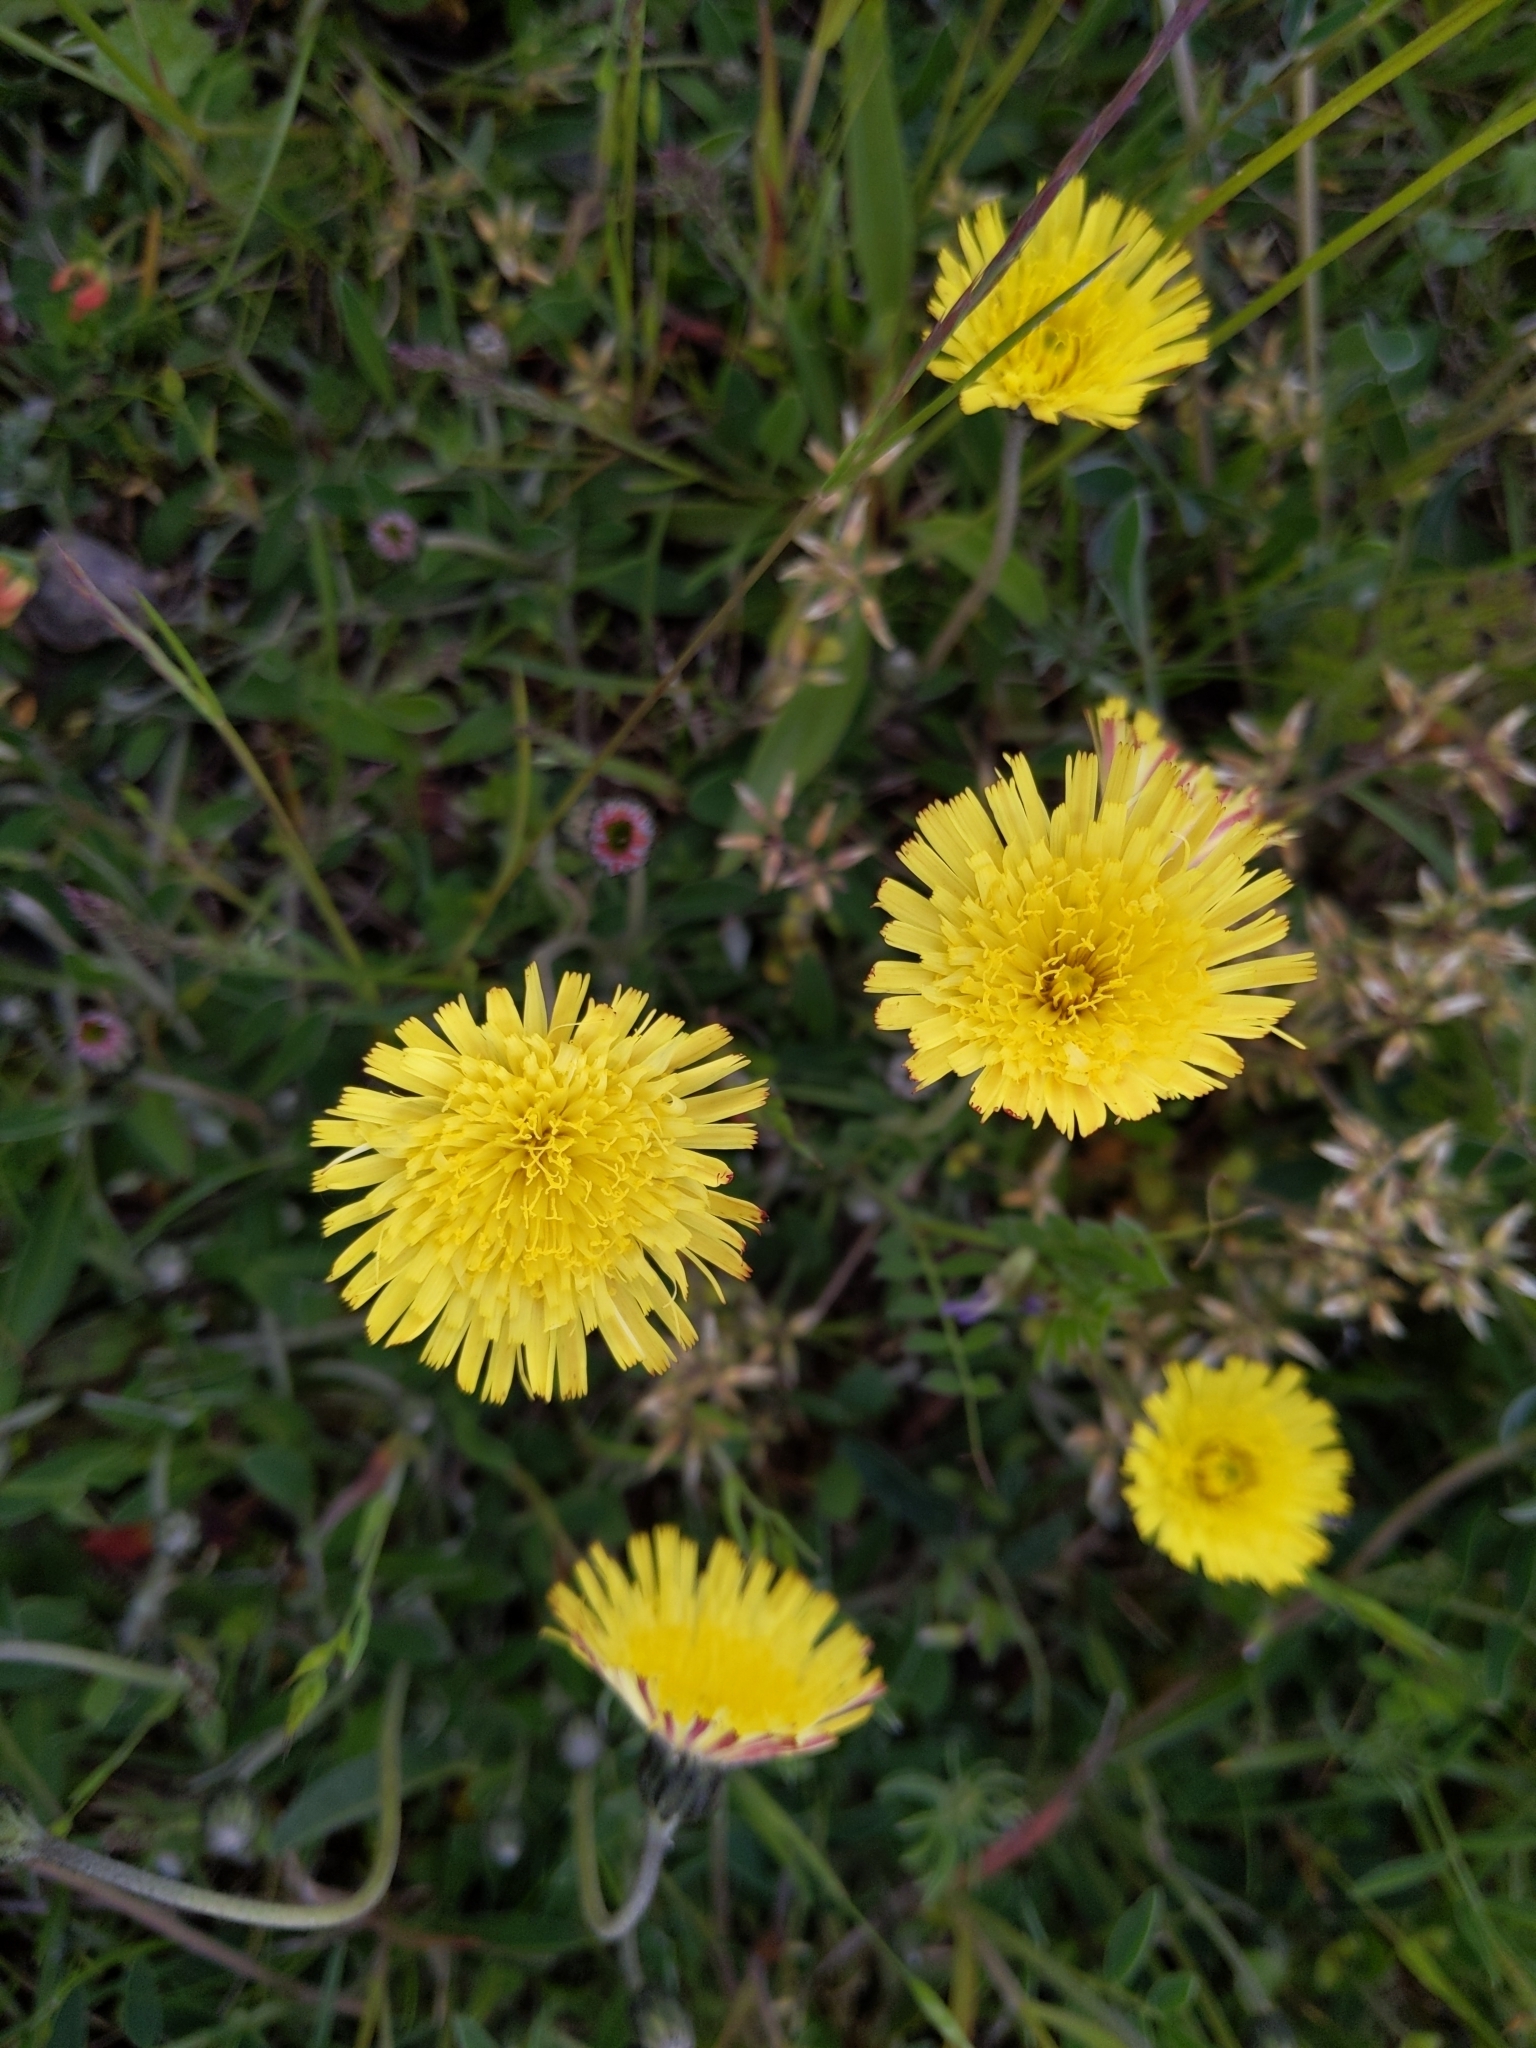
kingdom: Plantae
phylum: Tracheophyta
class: Magnoliopsida
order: Asterales
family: Asteraceae
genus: Pilosella
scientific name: Pilosella officinarum
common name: Mouse-ear hawkweed
